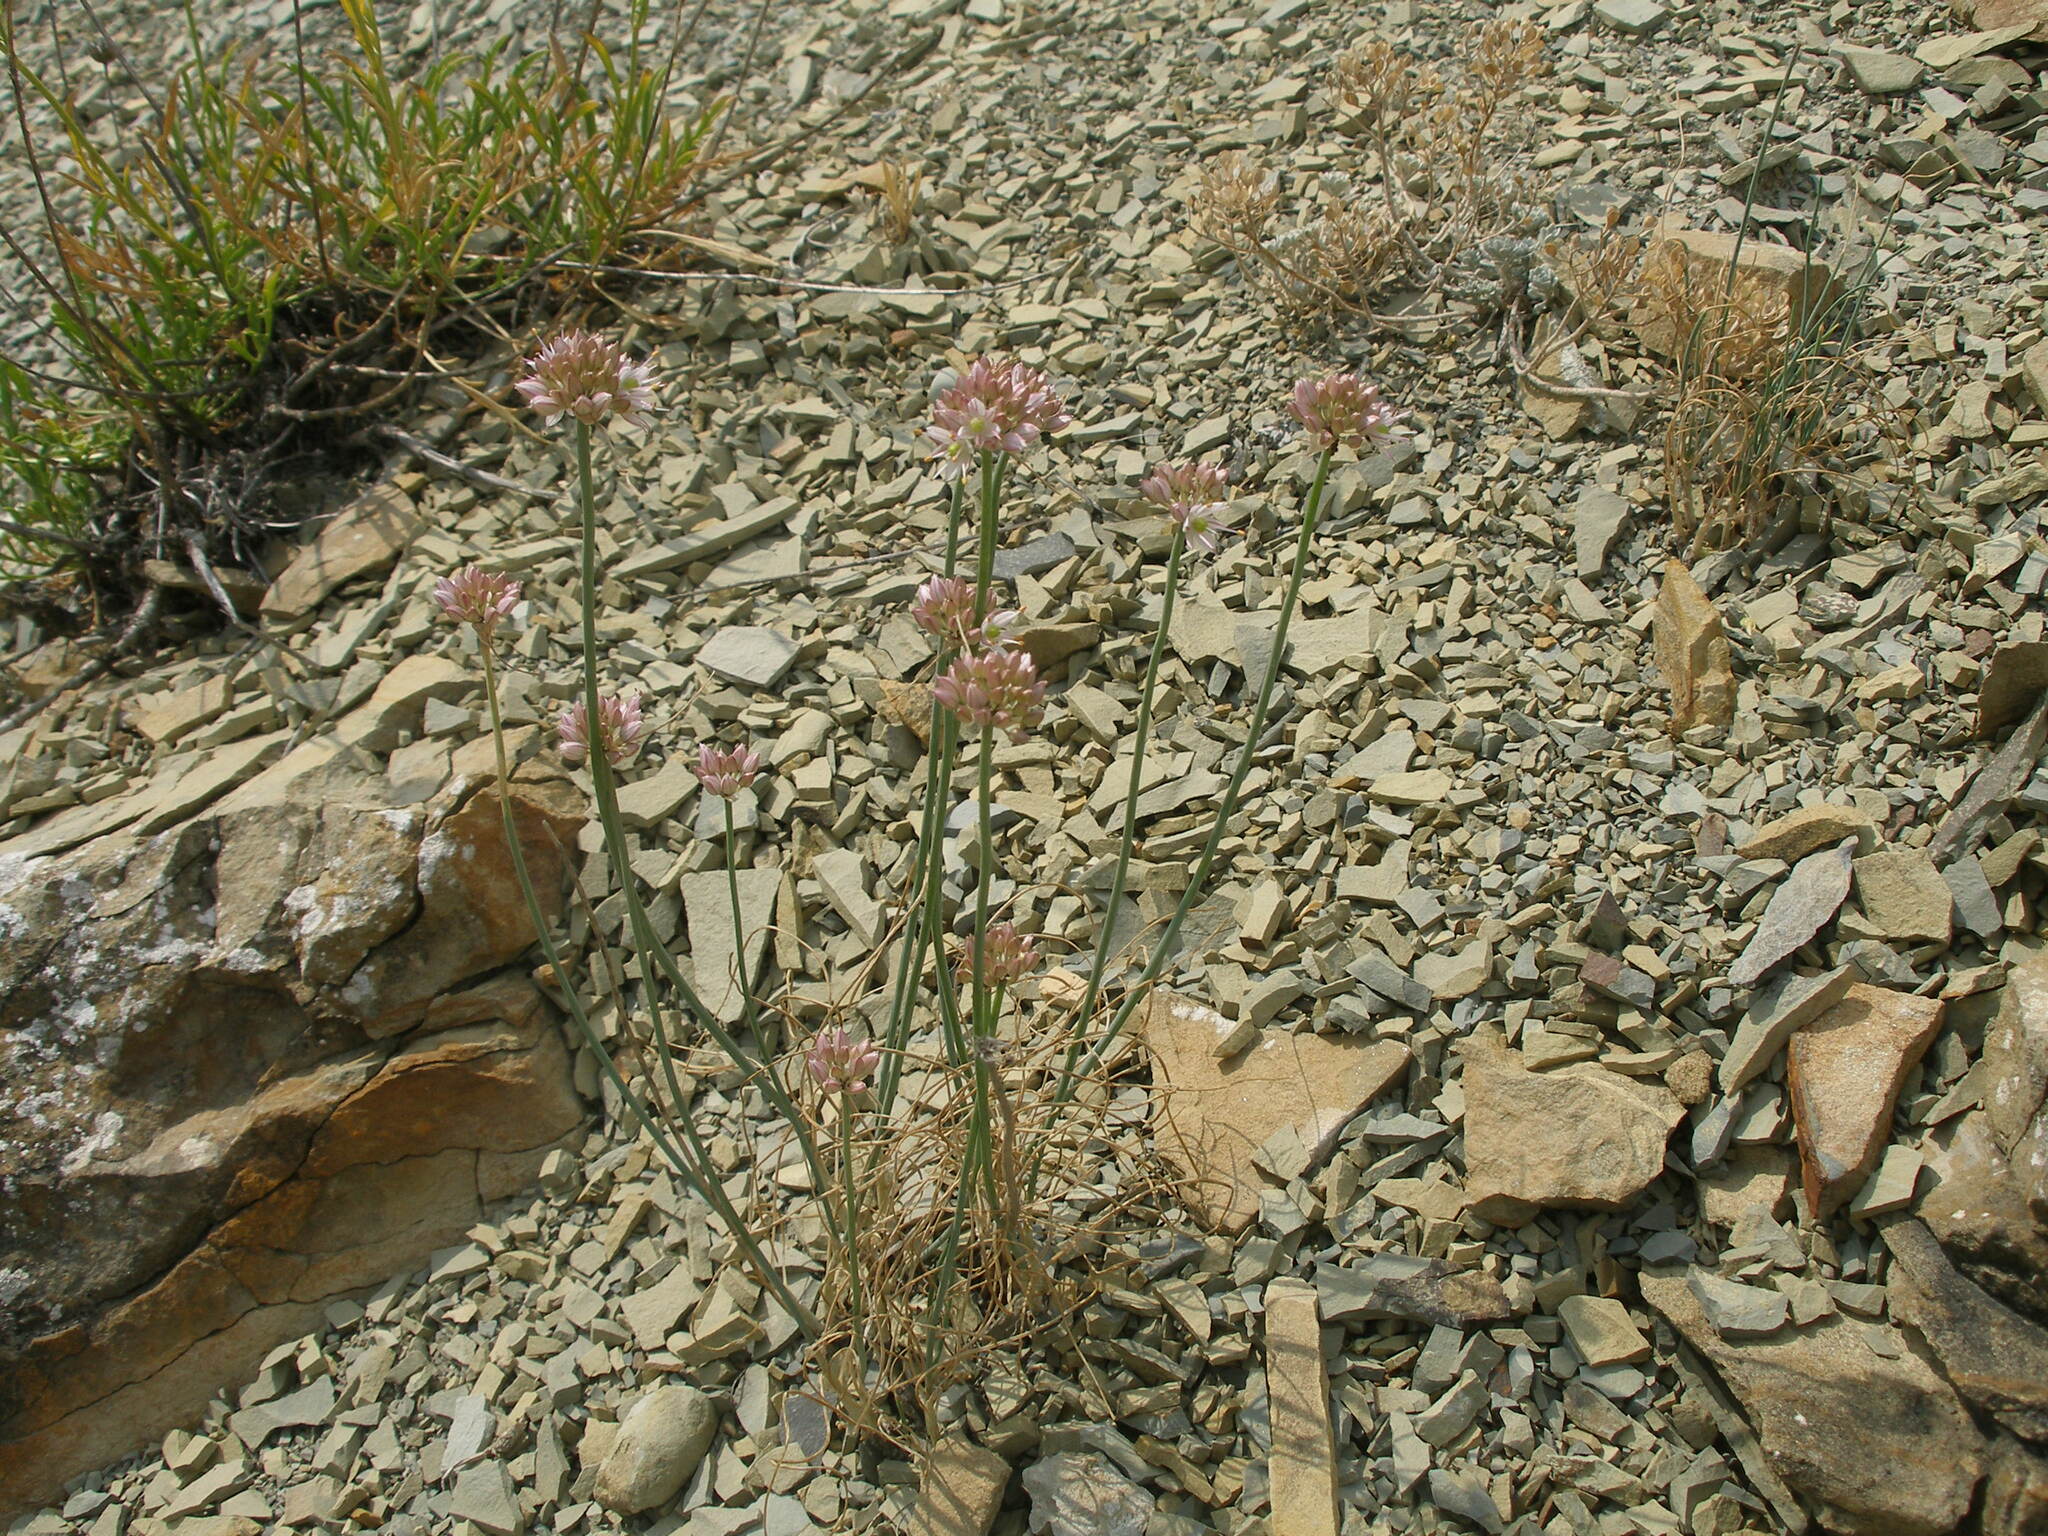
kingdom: Plantae
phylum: Tracheophyta
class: Liliopsida
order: Asparagales
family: Amaryllidaceae
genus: Allium
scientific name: Allium psebaicum
